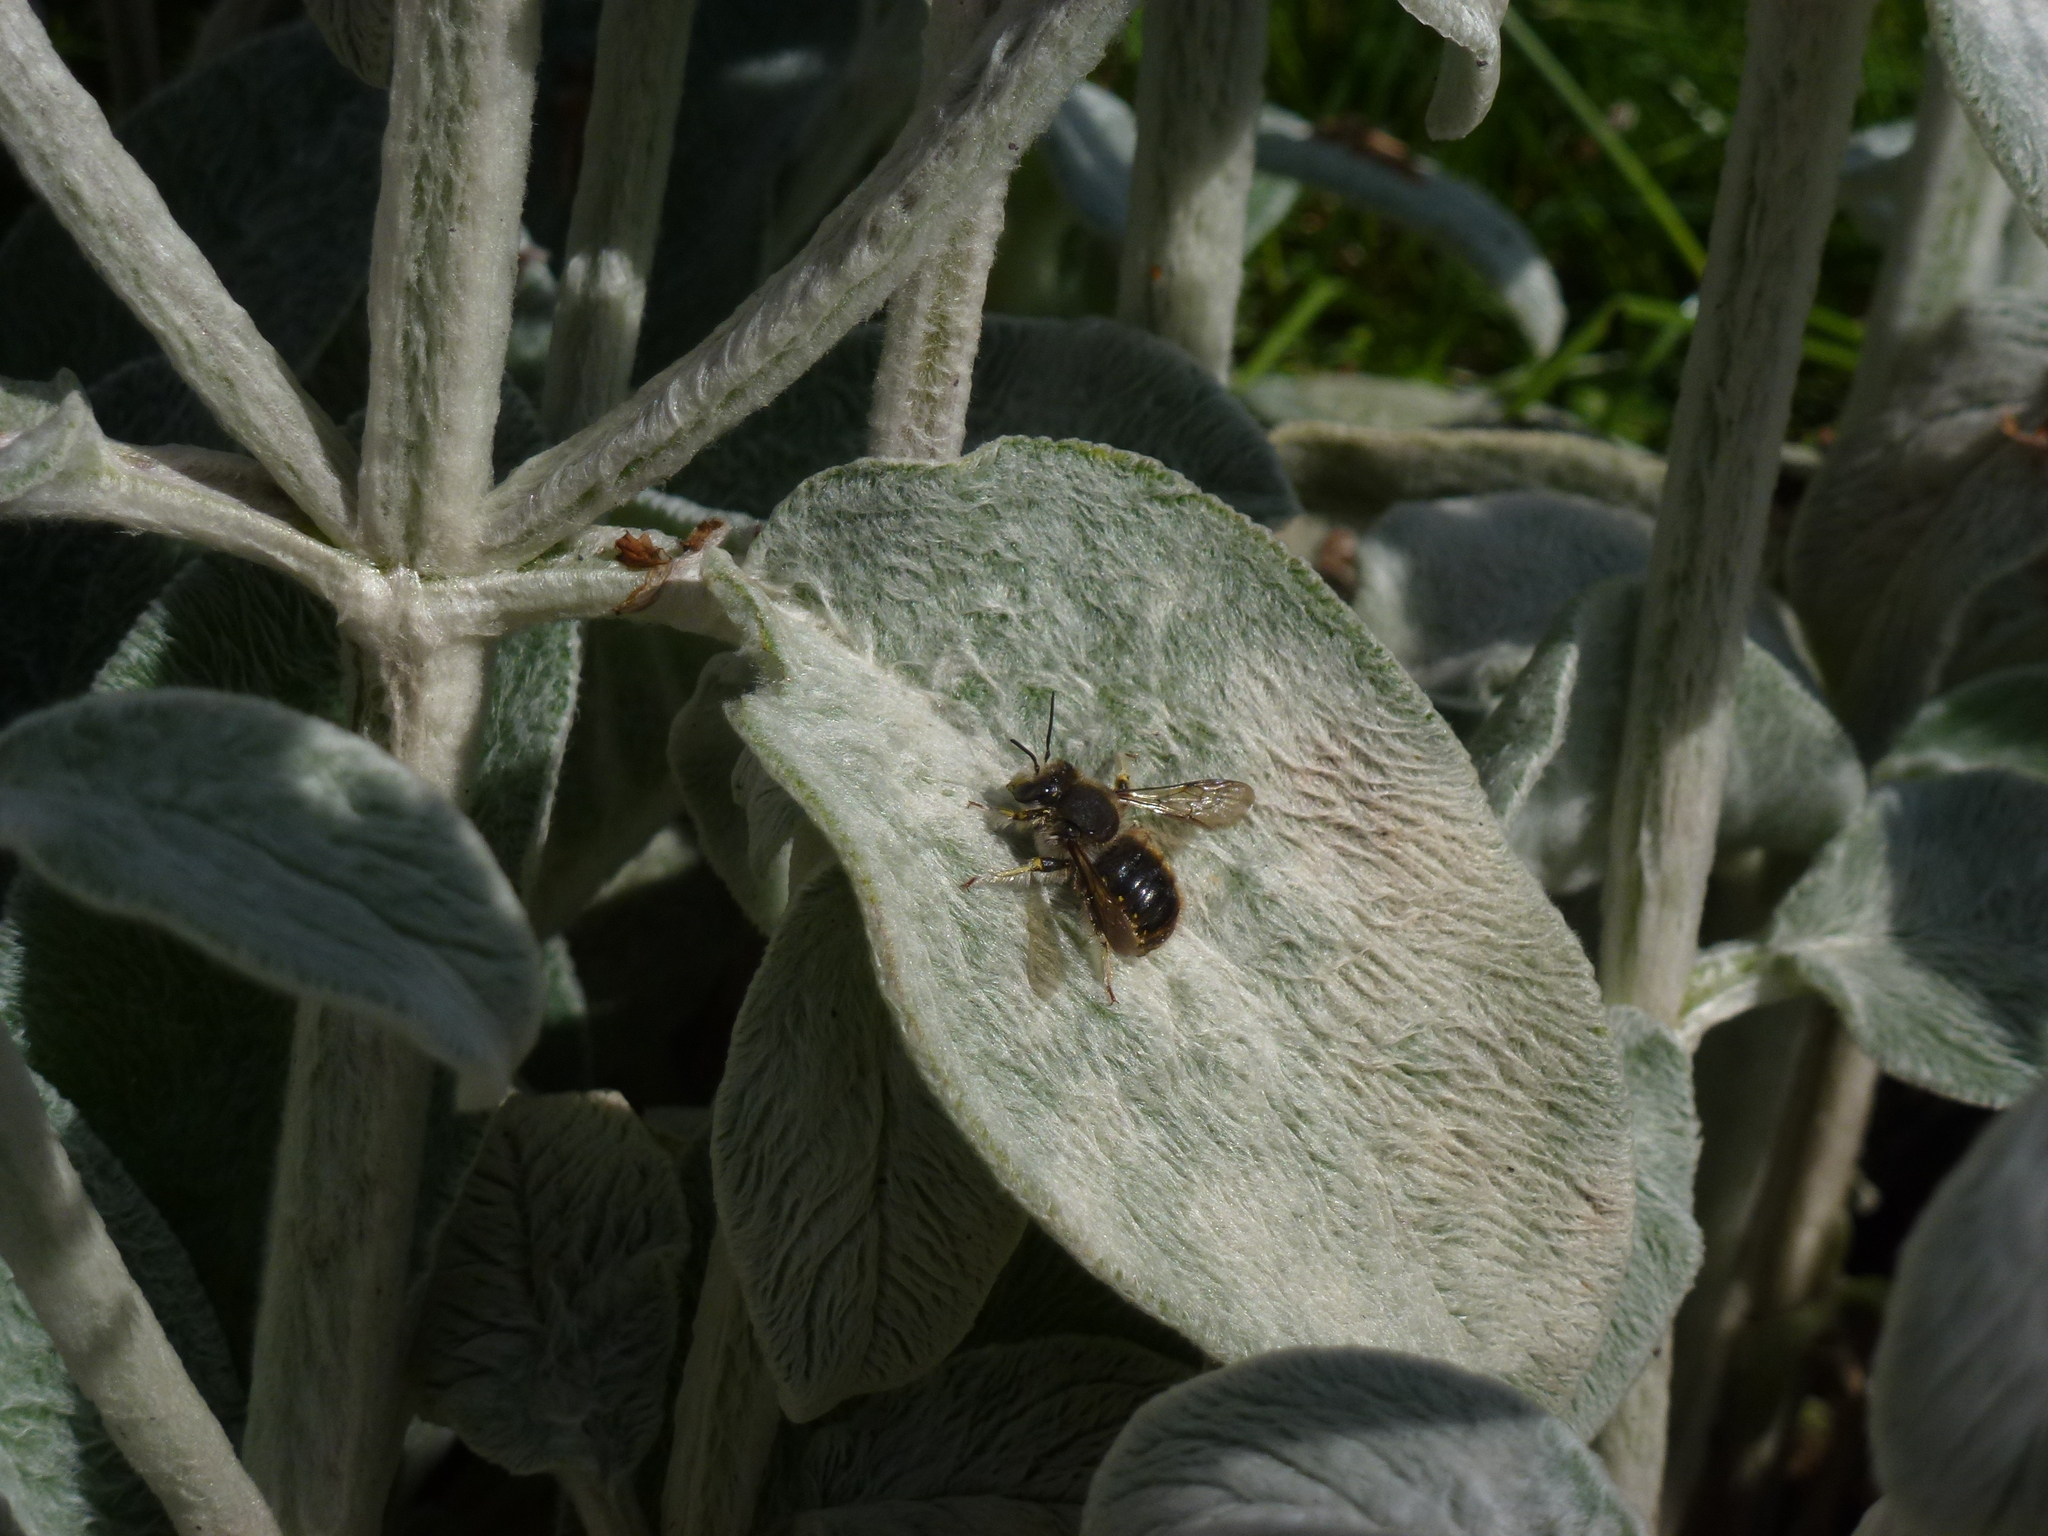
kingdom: Animalia
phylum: Arthropoda
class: Insecta
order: Hymenoptera
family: Megachilidae
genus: Anthidium
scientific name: Anthidium manicatum
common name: Wool carder bee
